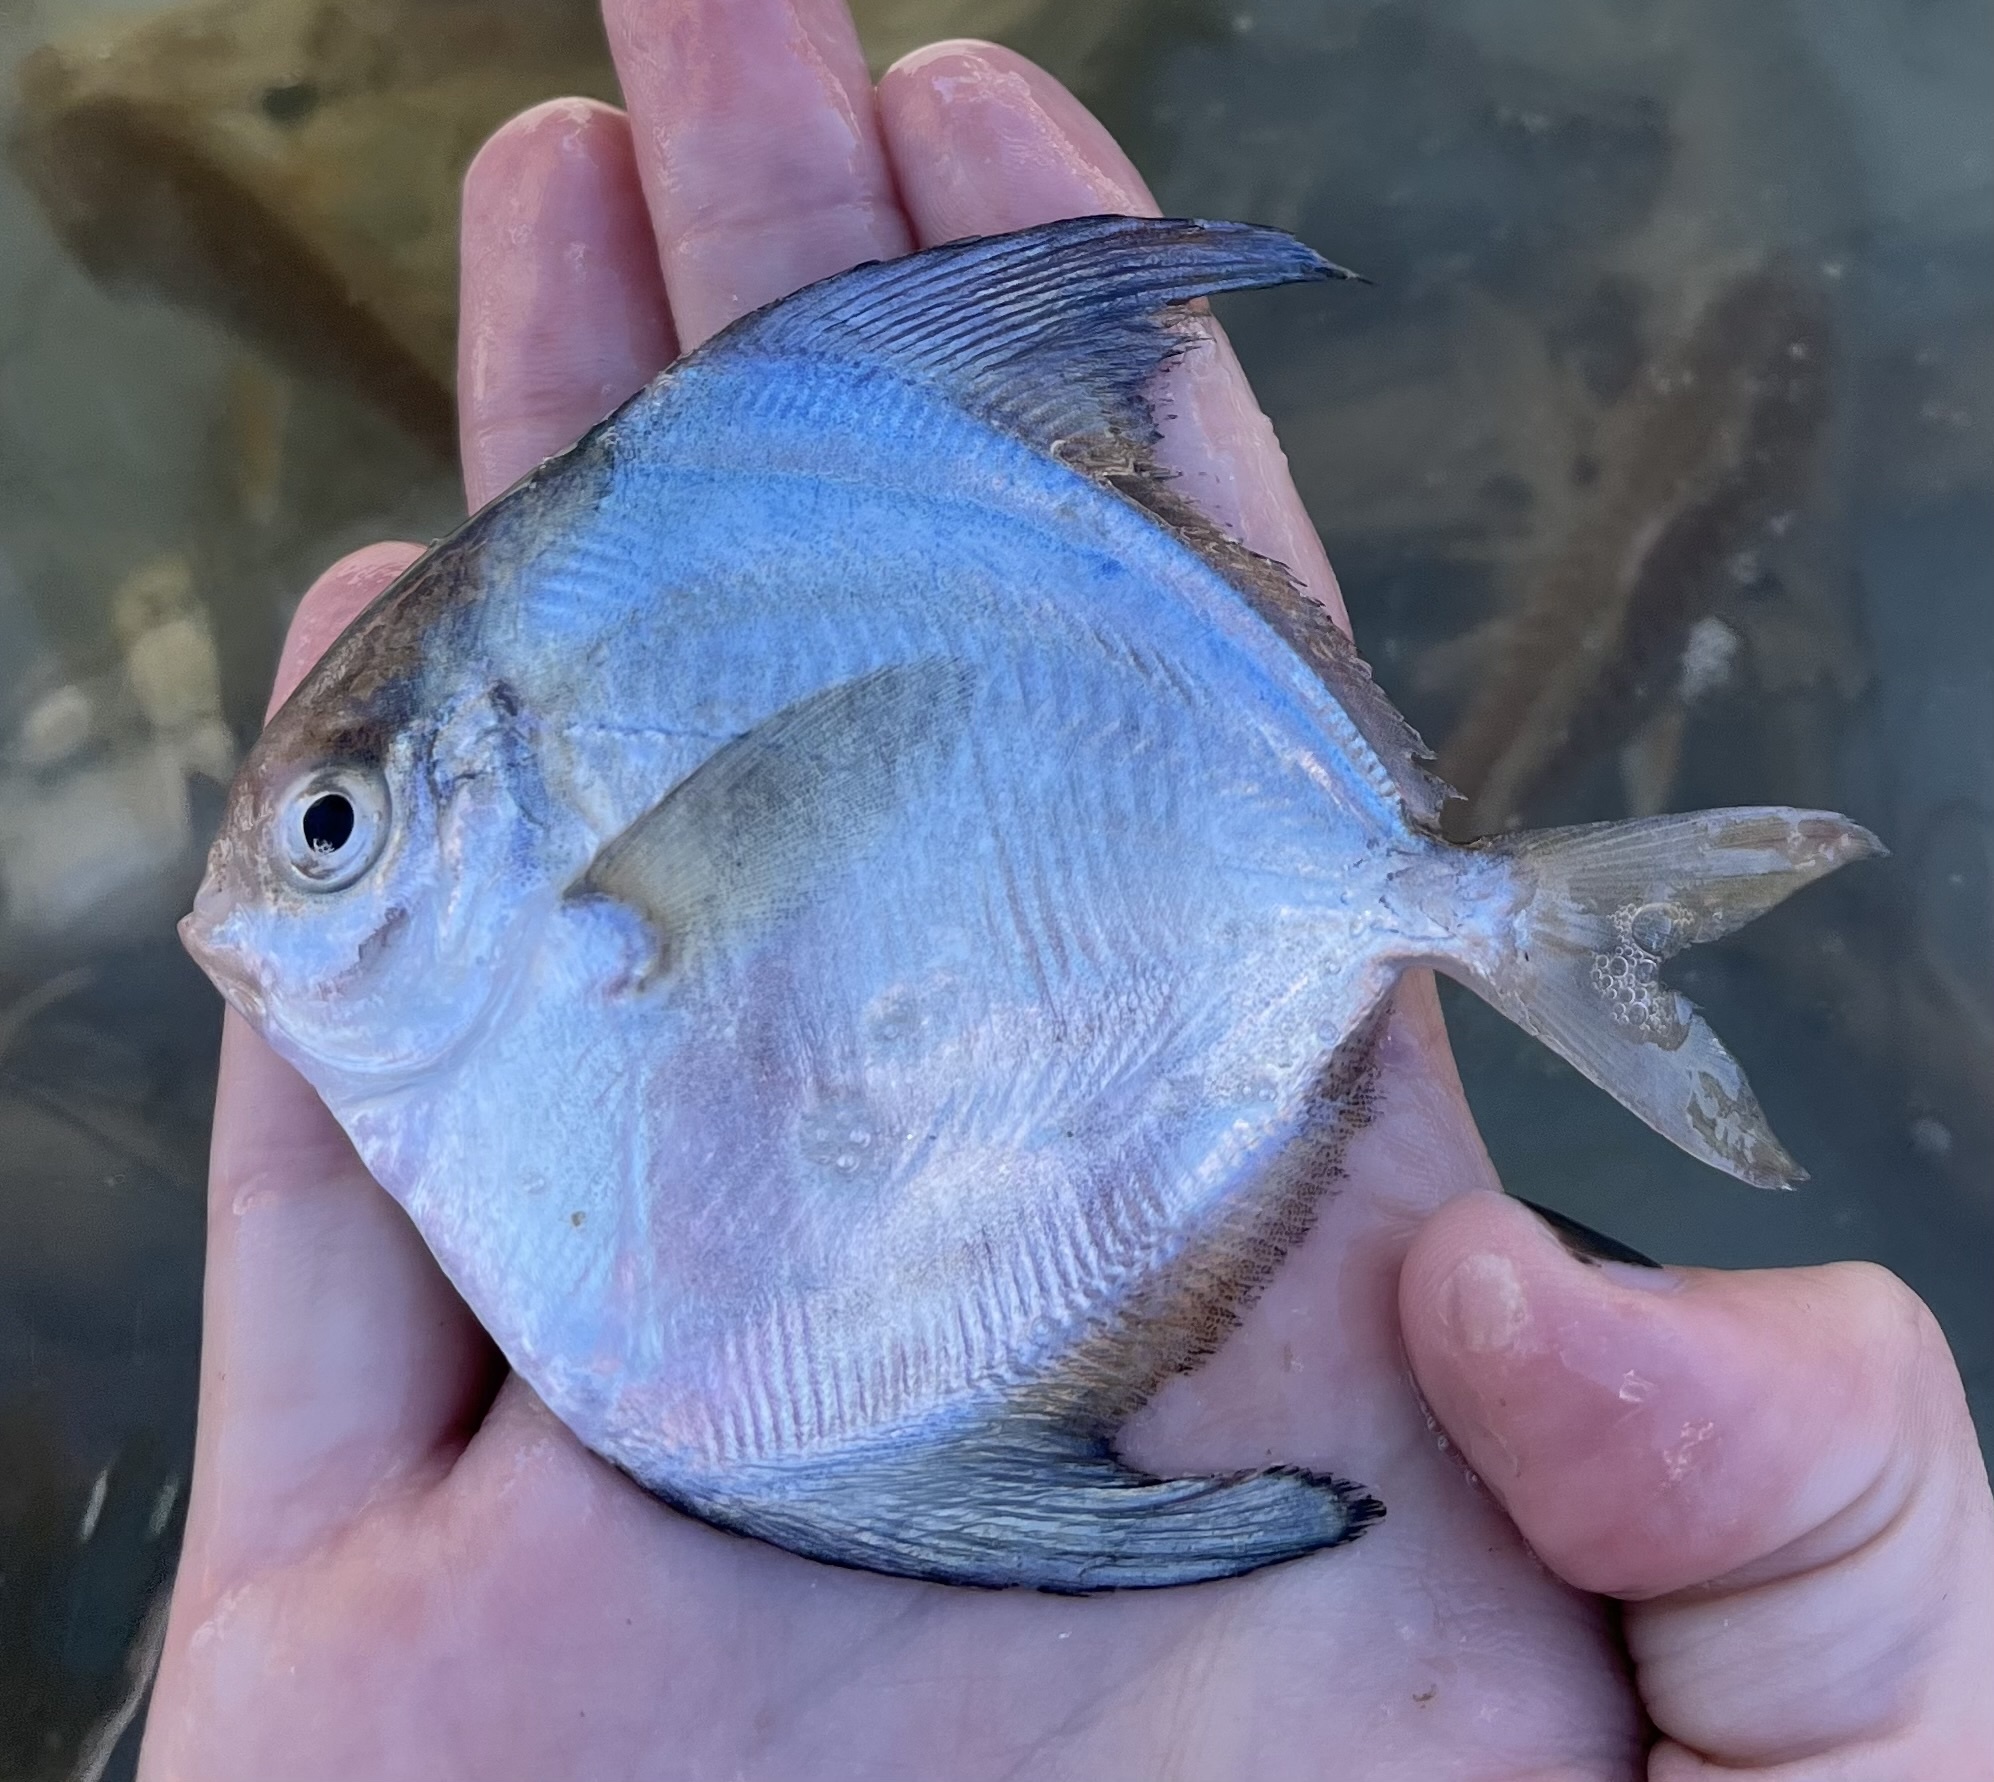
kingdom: Animalia
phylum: Chordata
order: Perciformes
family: Stromateidae
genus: Peprilus
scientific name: Peprilus paru
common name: American harvestfish
